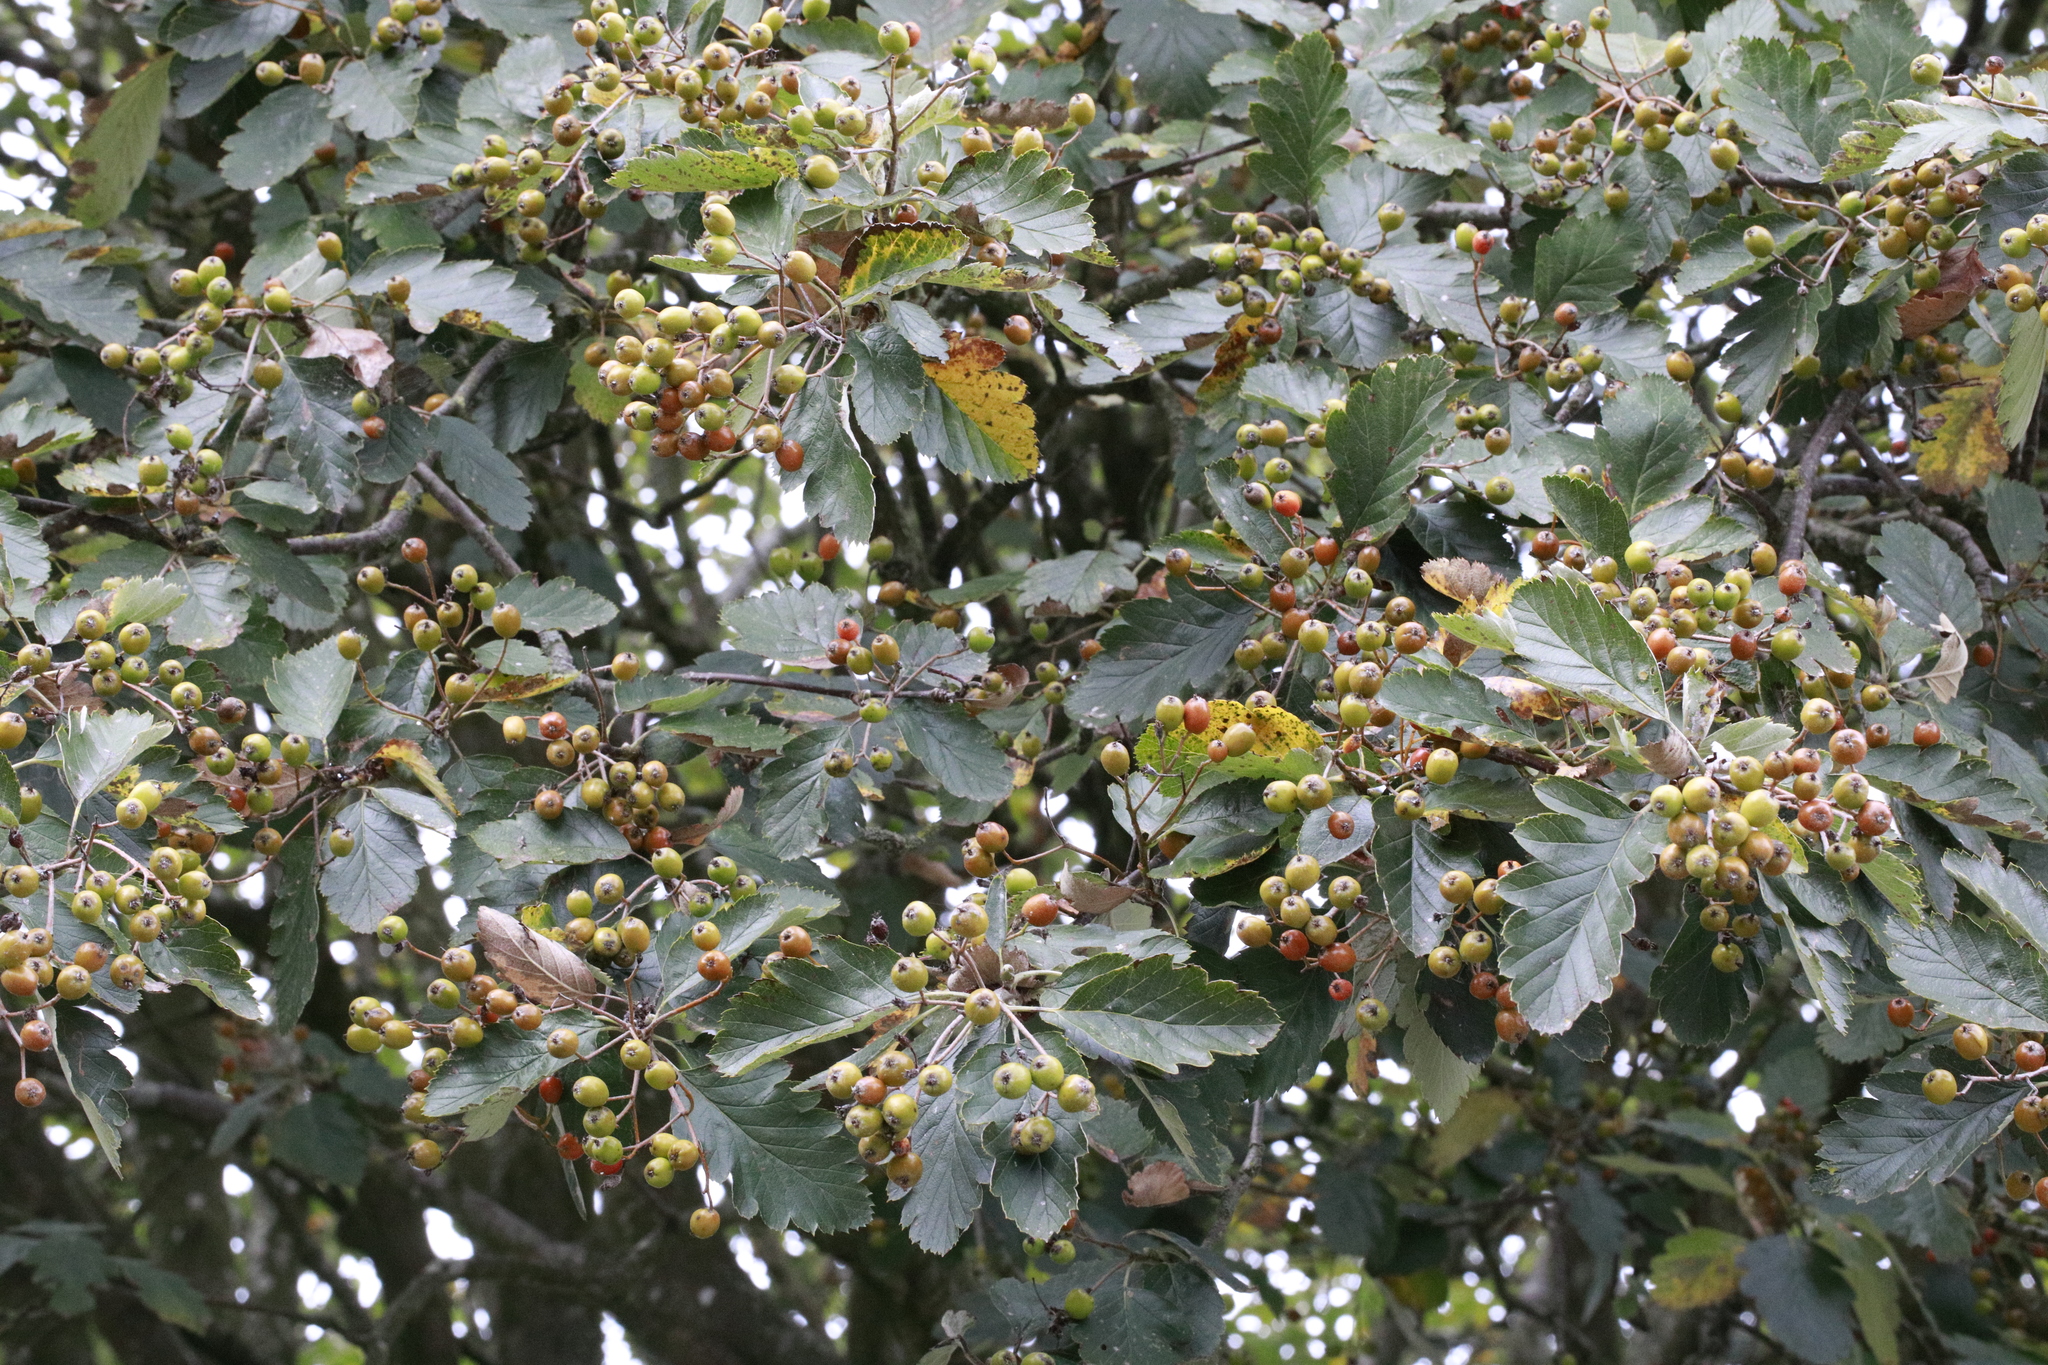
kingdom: Plantae
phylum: Tracheophyta
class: Magnoliopsida
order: Rosales
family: Rosaceae
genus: Scandosorbus
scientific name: Scandosorbus intermedia
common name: Swedish whitebeam
